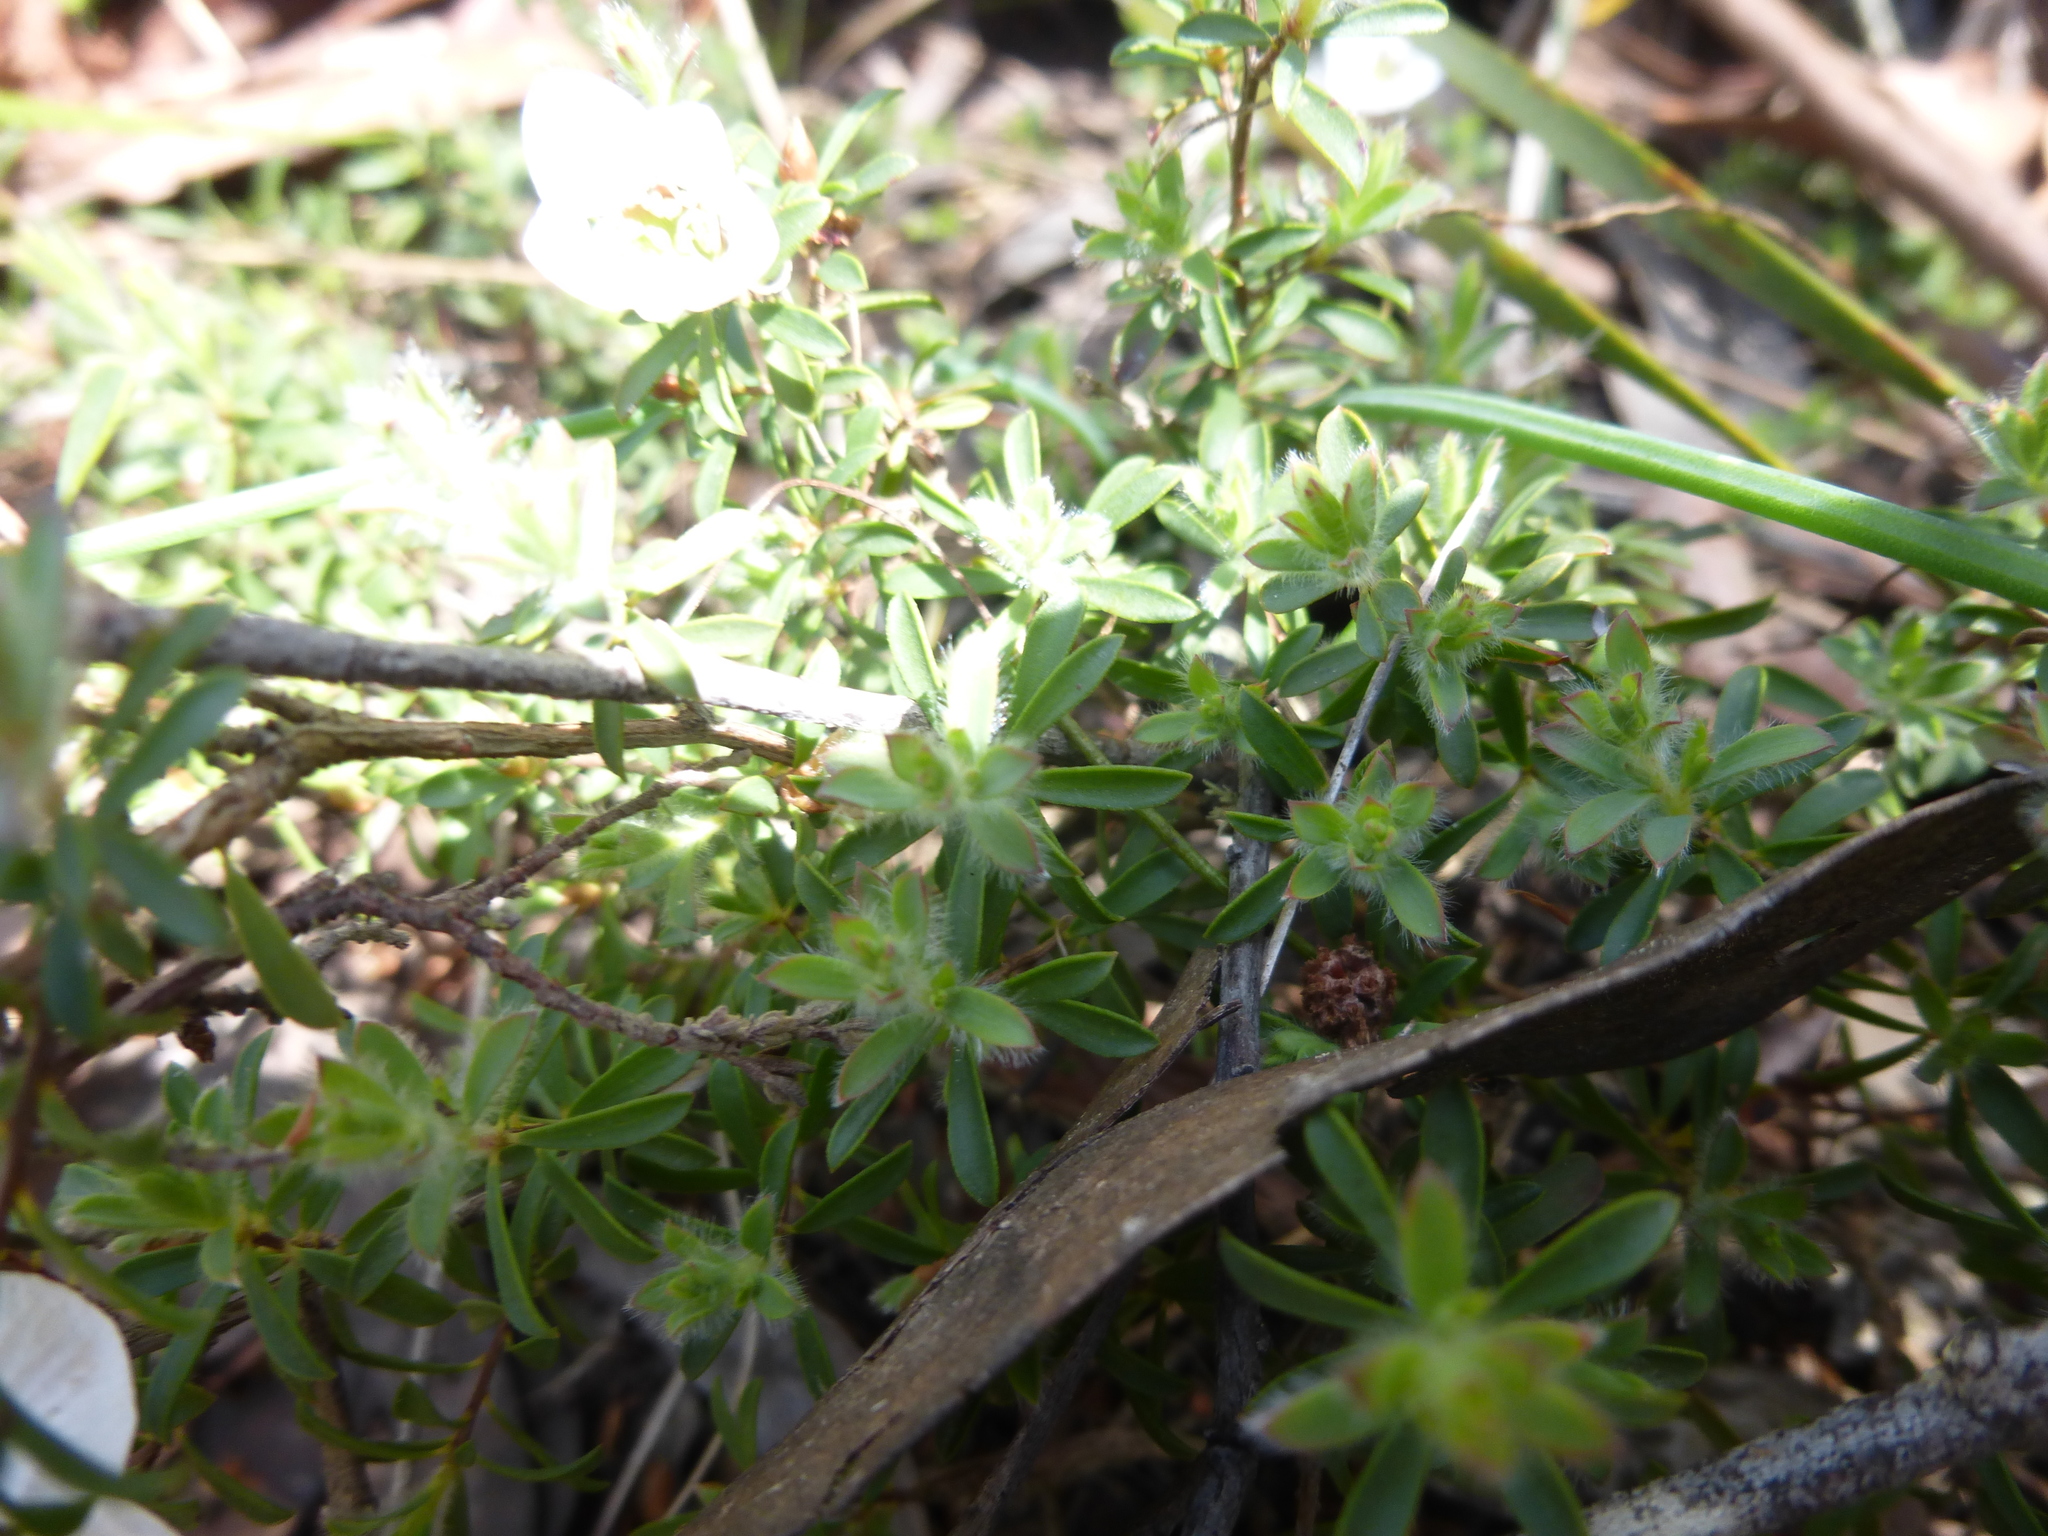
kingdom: Plantae
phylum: Tracheophyta
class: Magnoliopsida
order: Myrtales
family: Myrtaceae
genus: Leptospermum
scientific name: Leptospermum myrsinoides
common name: Heath teatree
